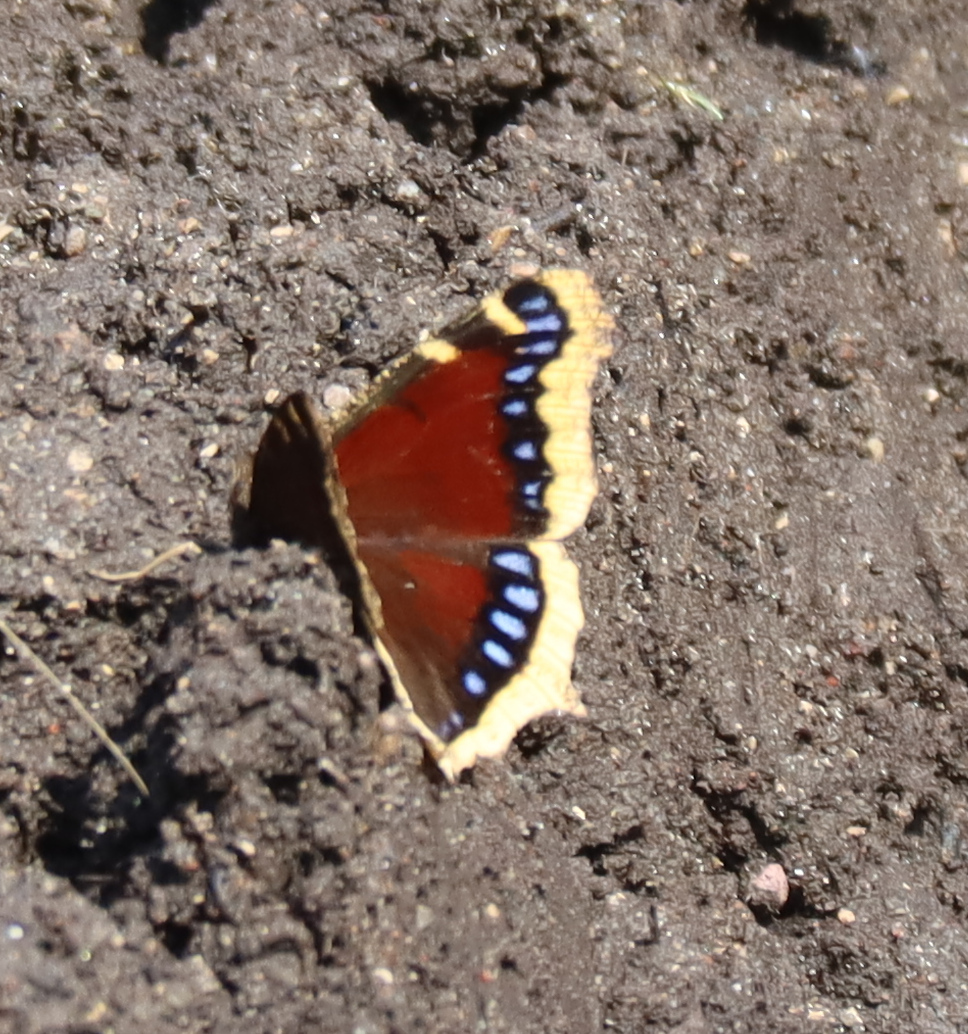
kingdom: Animalia
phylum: Arthropoda
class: Insecta
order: Lepidoptera
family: Nymphalidae
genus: Nymphalis
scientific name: Nymphalis antiopa
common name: Camberwell beauty
